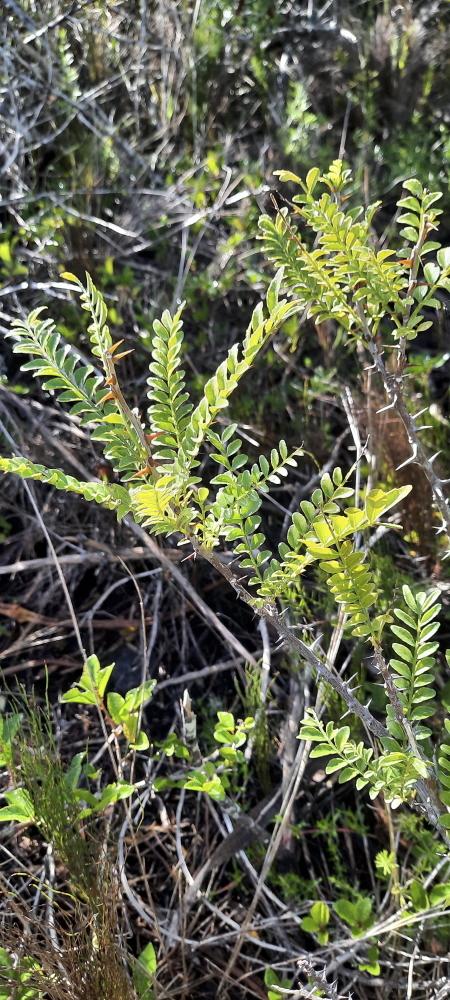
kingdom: Plantae
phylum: Tracheophyta
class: Magnoliopsida
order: Sapindales
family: Rutaceae
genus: Zanthoxylum
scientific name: Zanthoxylum capense
